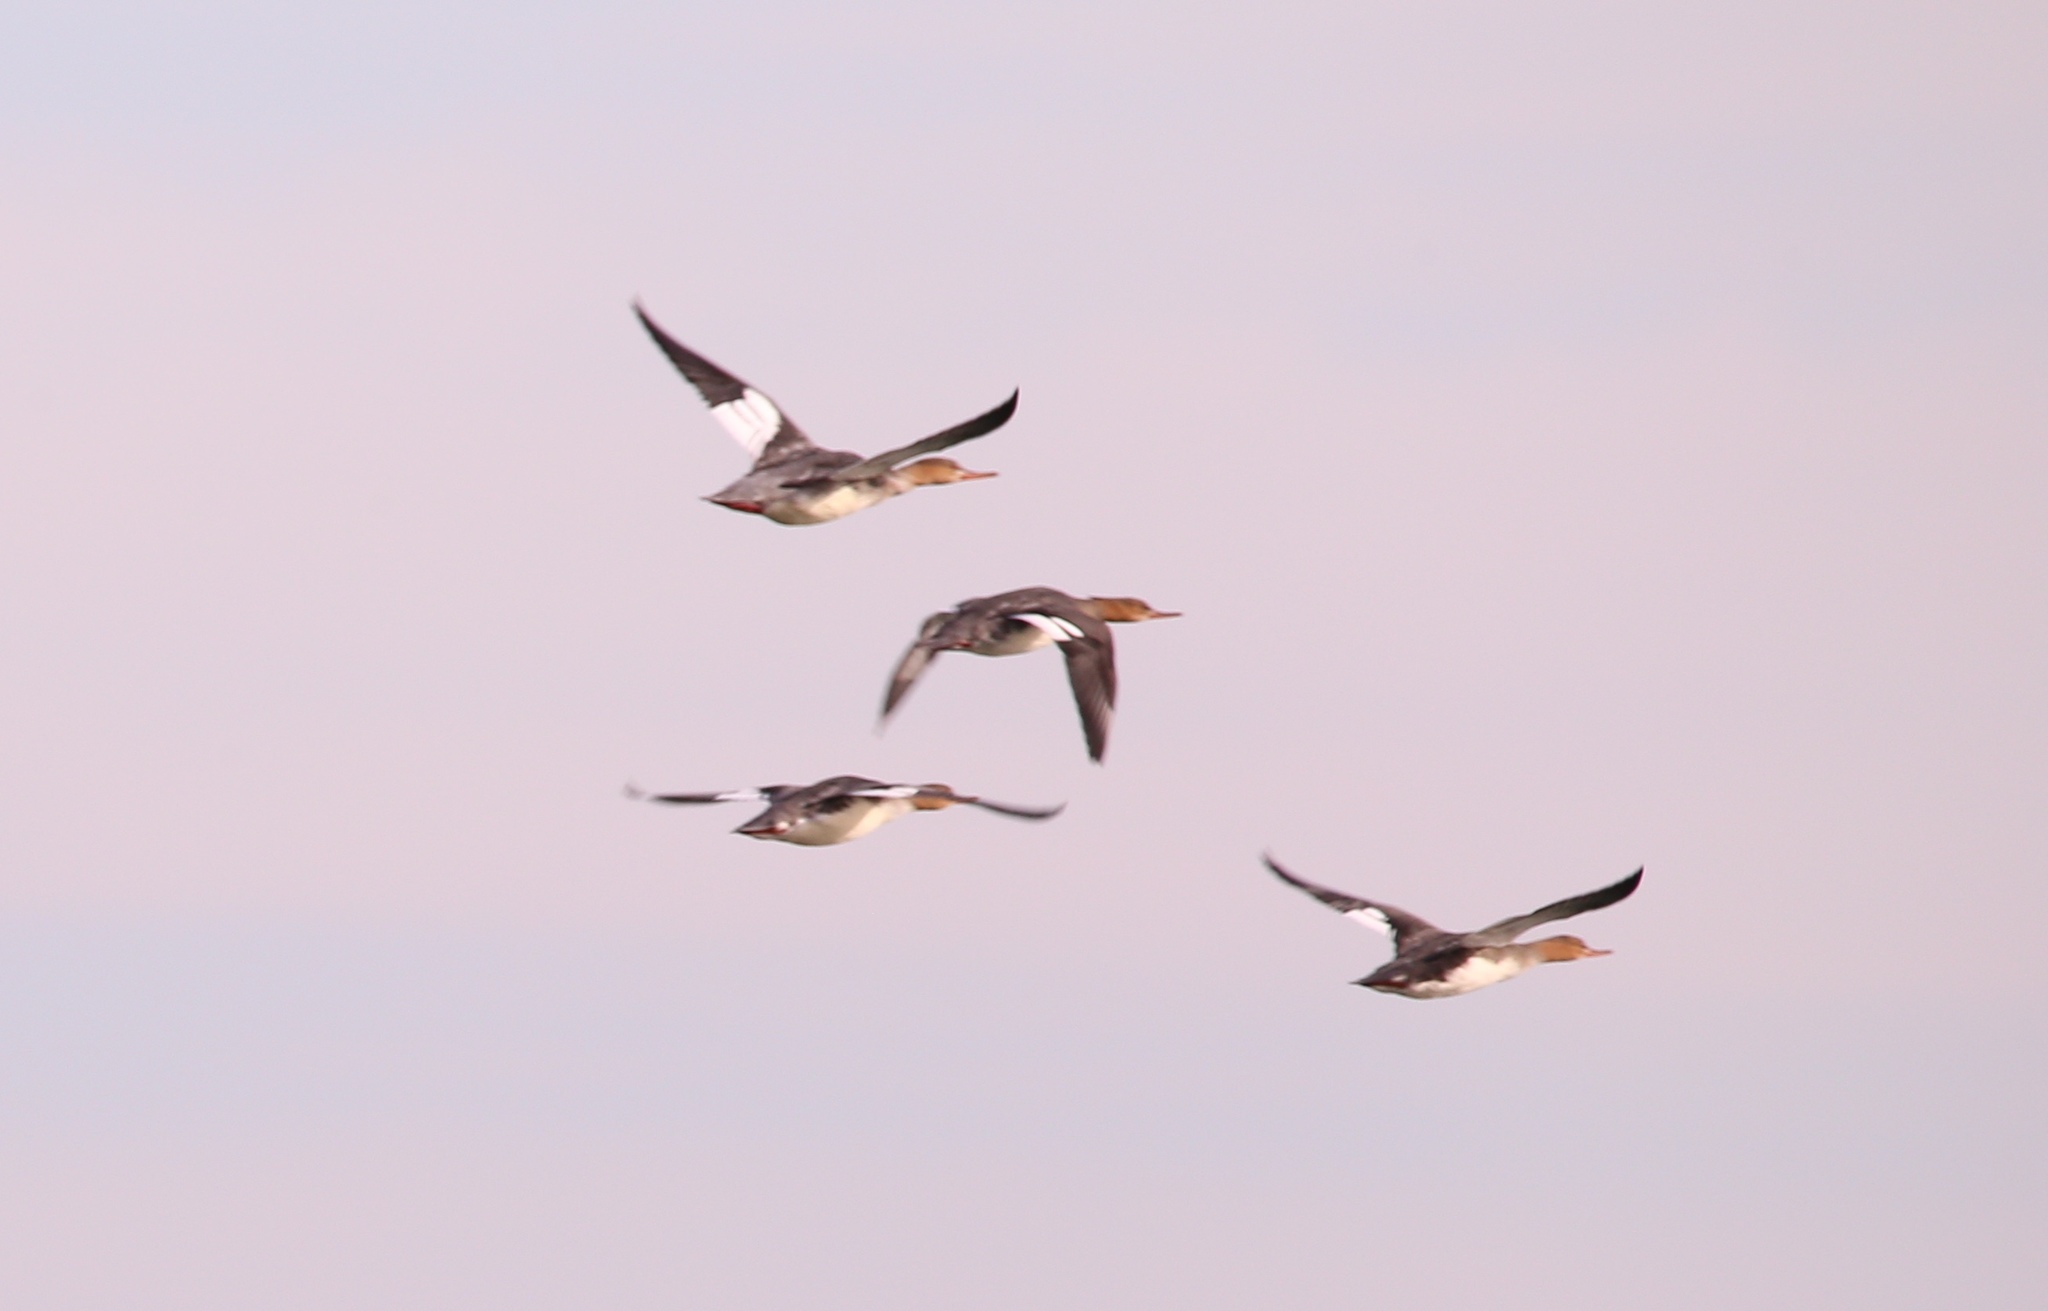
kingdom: Animalia
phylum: Chordata
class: Aves
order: Anseriformes
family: Anatidae
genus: Mergus
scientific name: Mergus serrator
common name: Red-breasted merganser
